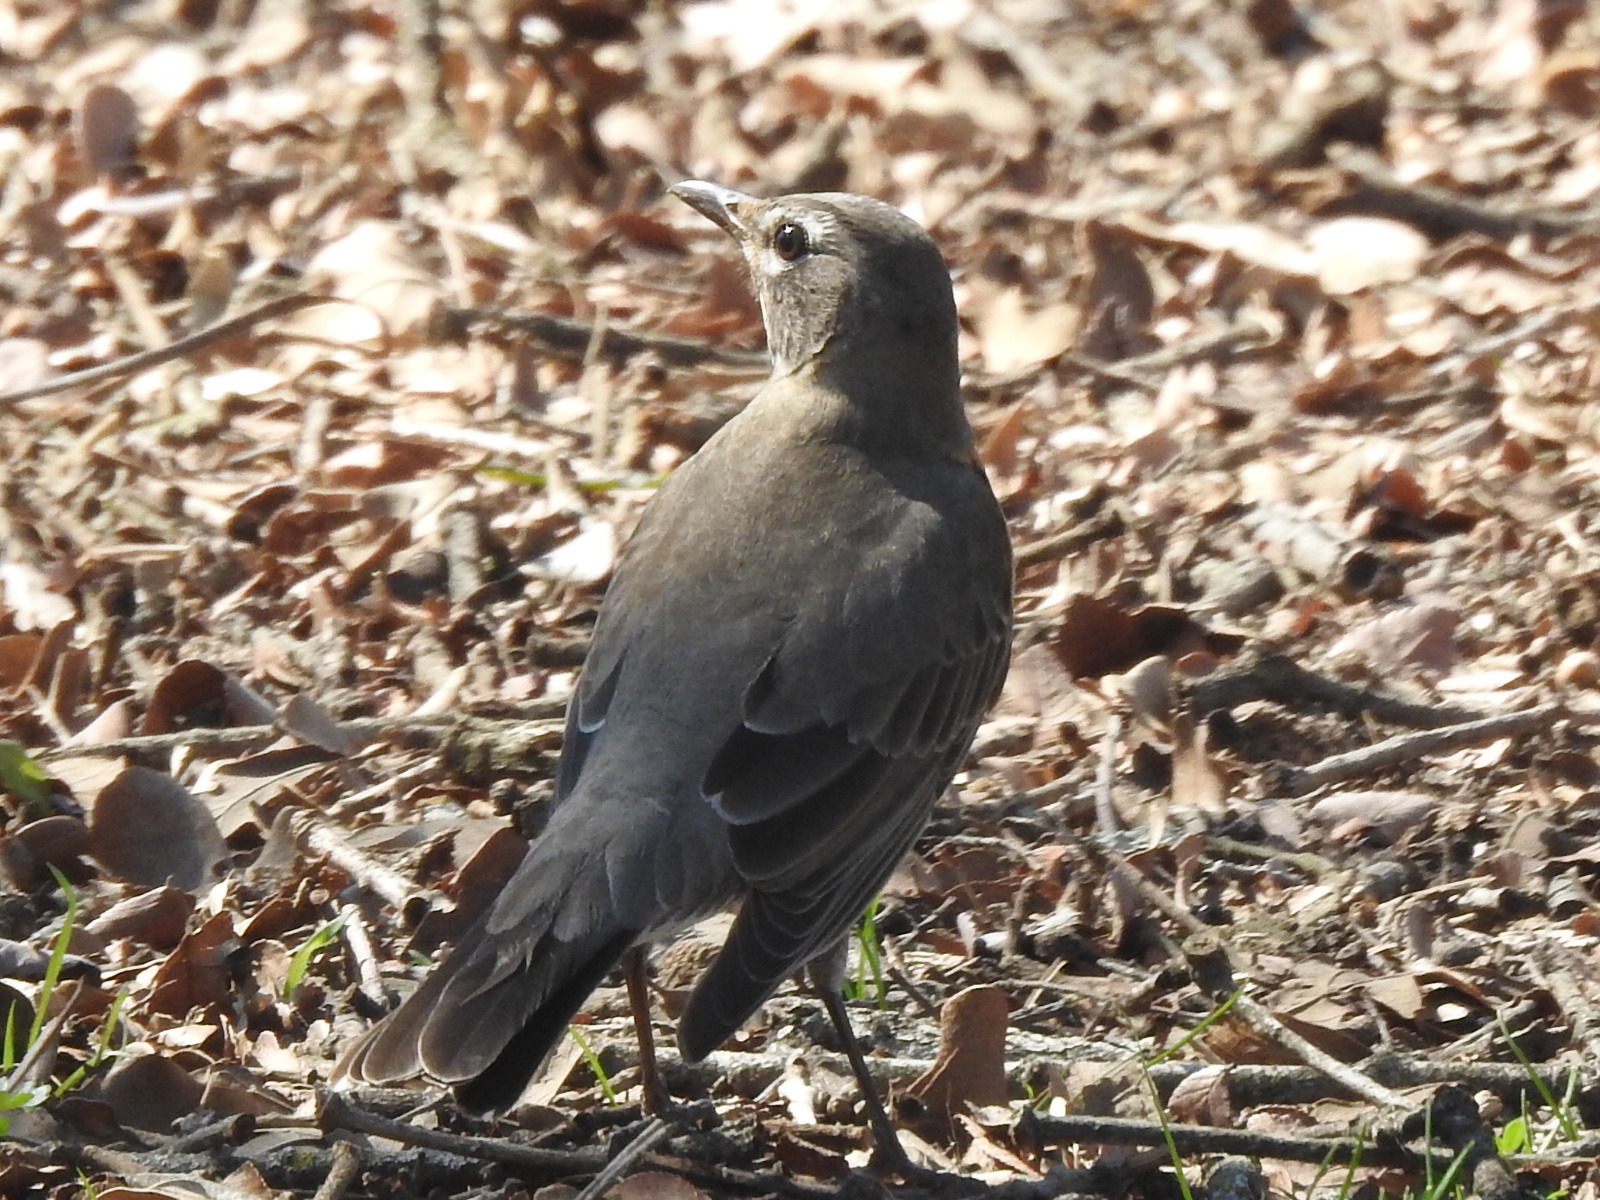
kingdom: Animalia
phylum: Chordata
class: Aves
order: Passeriformes
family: Turdidae
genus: Turdus
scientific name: Turdus migratorius
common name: American robin
